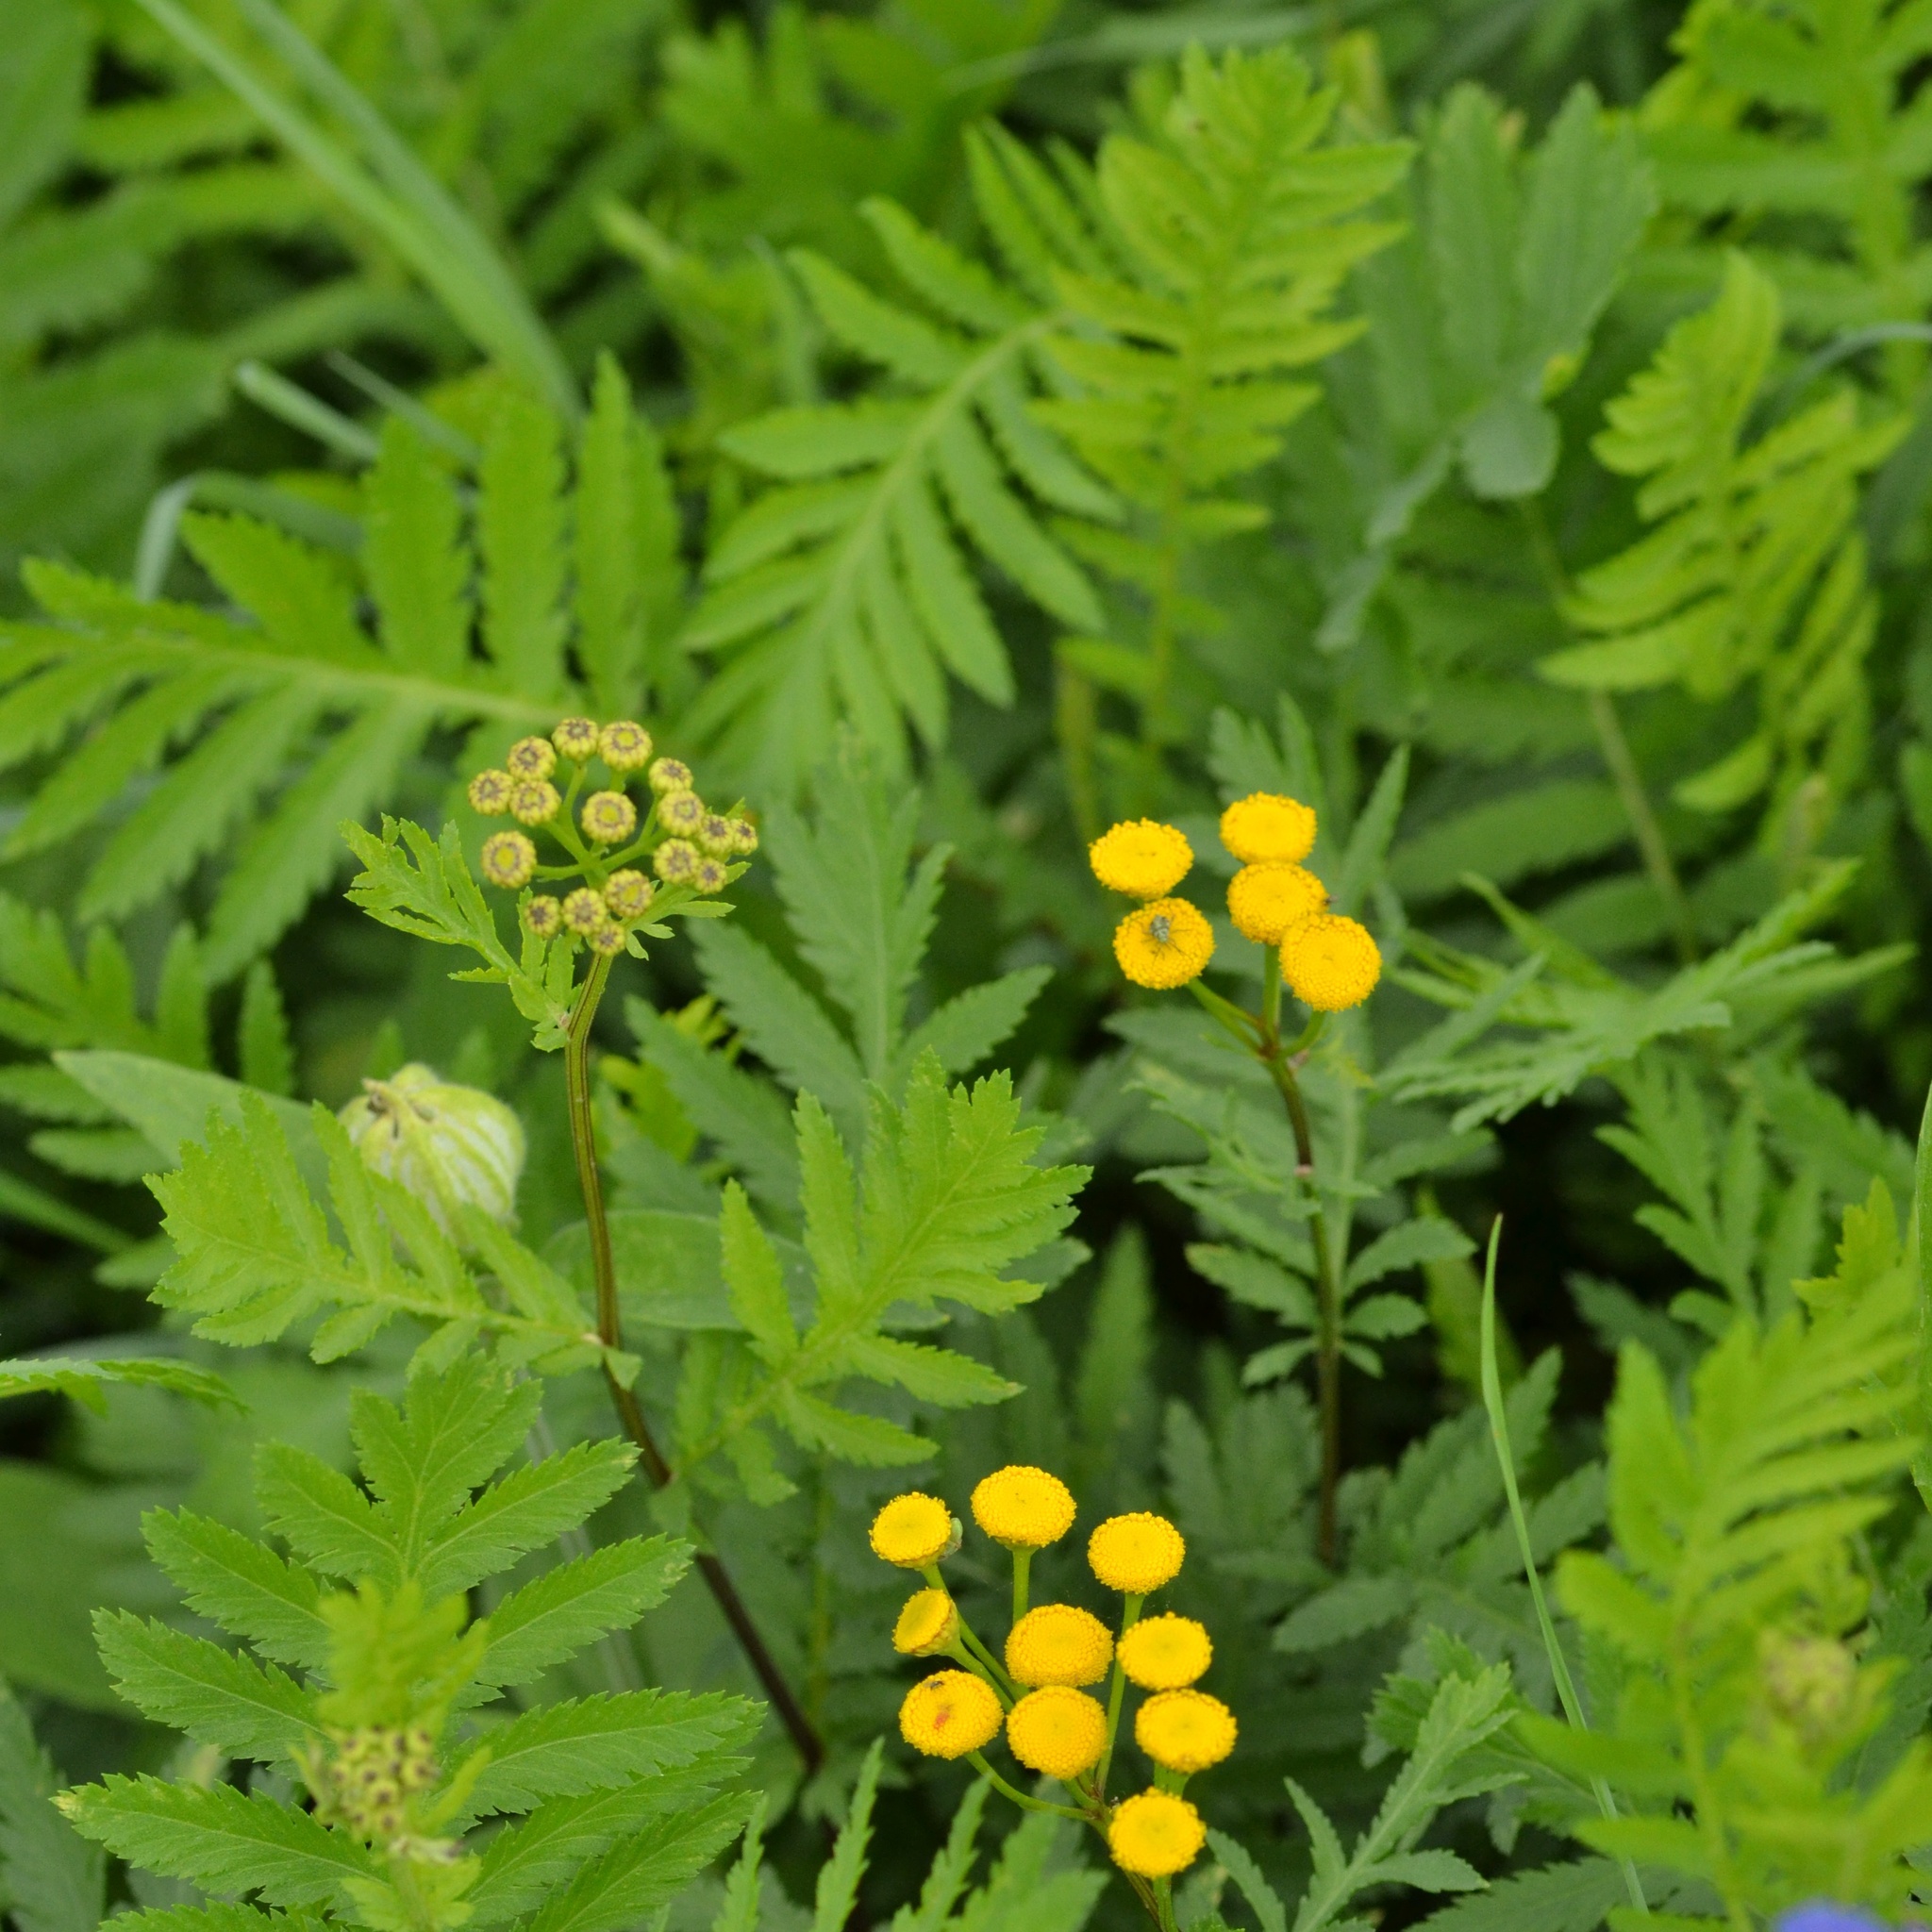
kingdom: Plantae
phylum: Tracheophyta
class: Magnoliopsida
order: Asterales
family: Asteraceae
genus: Tanacetum
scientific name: Tanacetum vulgare
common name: Common tansy
